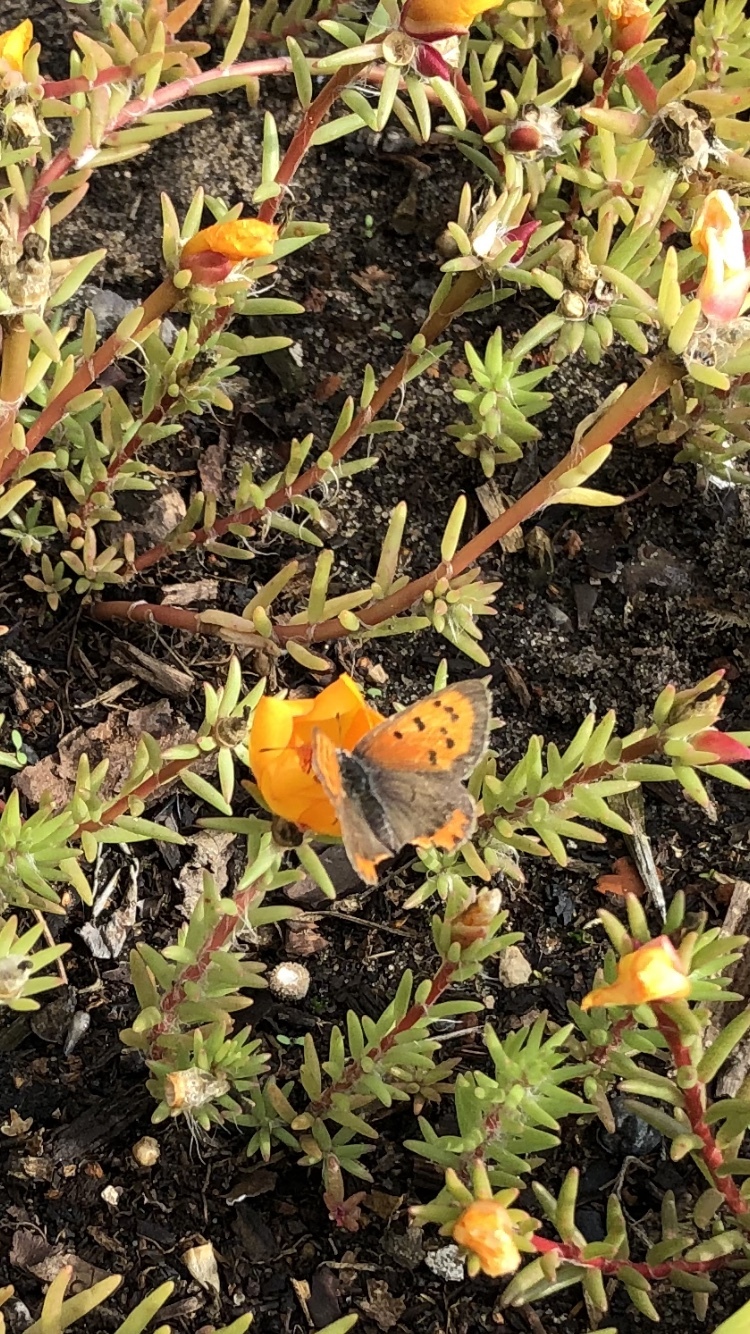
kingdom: Animalia
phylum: Arthropoda
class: Insecta
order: Lepidoptera
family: Lycaenidae
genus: Lycaena
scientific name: Lycaena phlaeas
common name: Small copper
